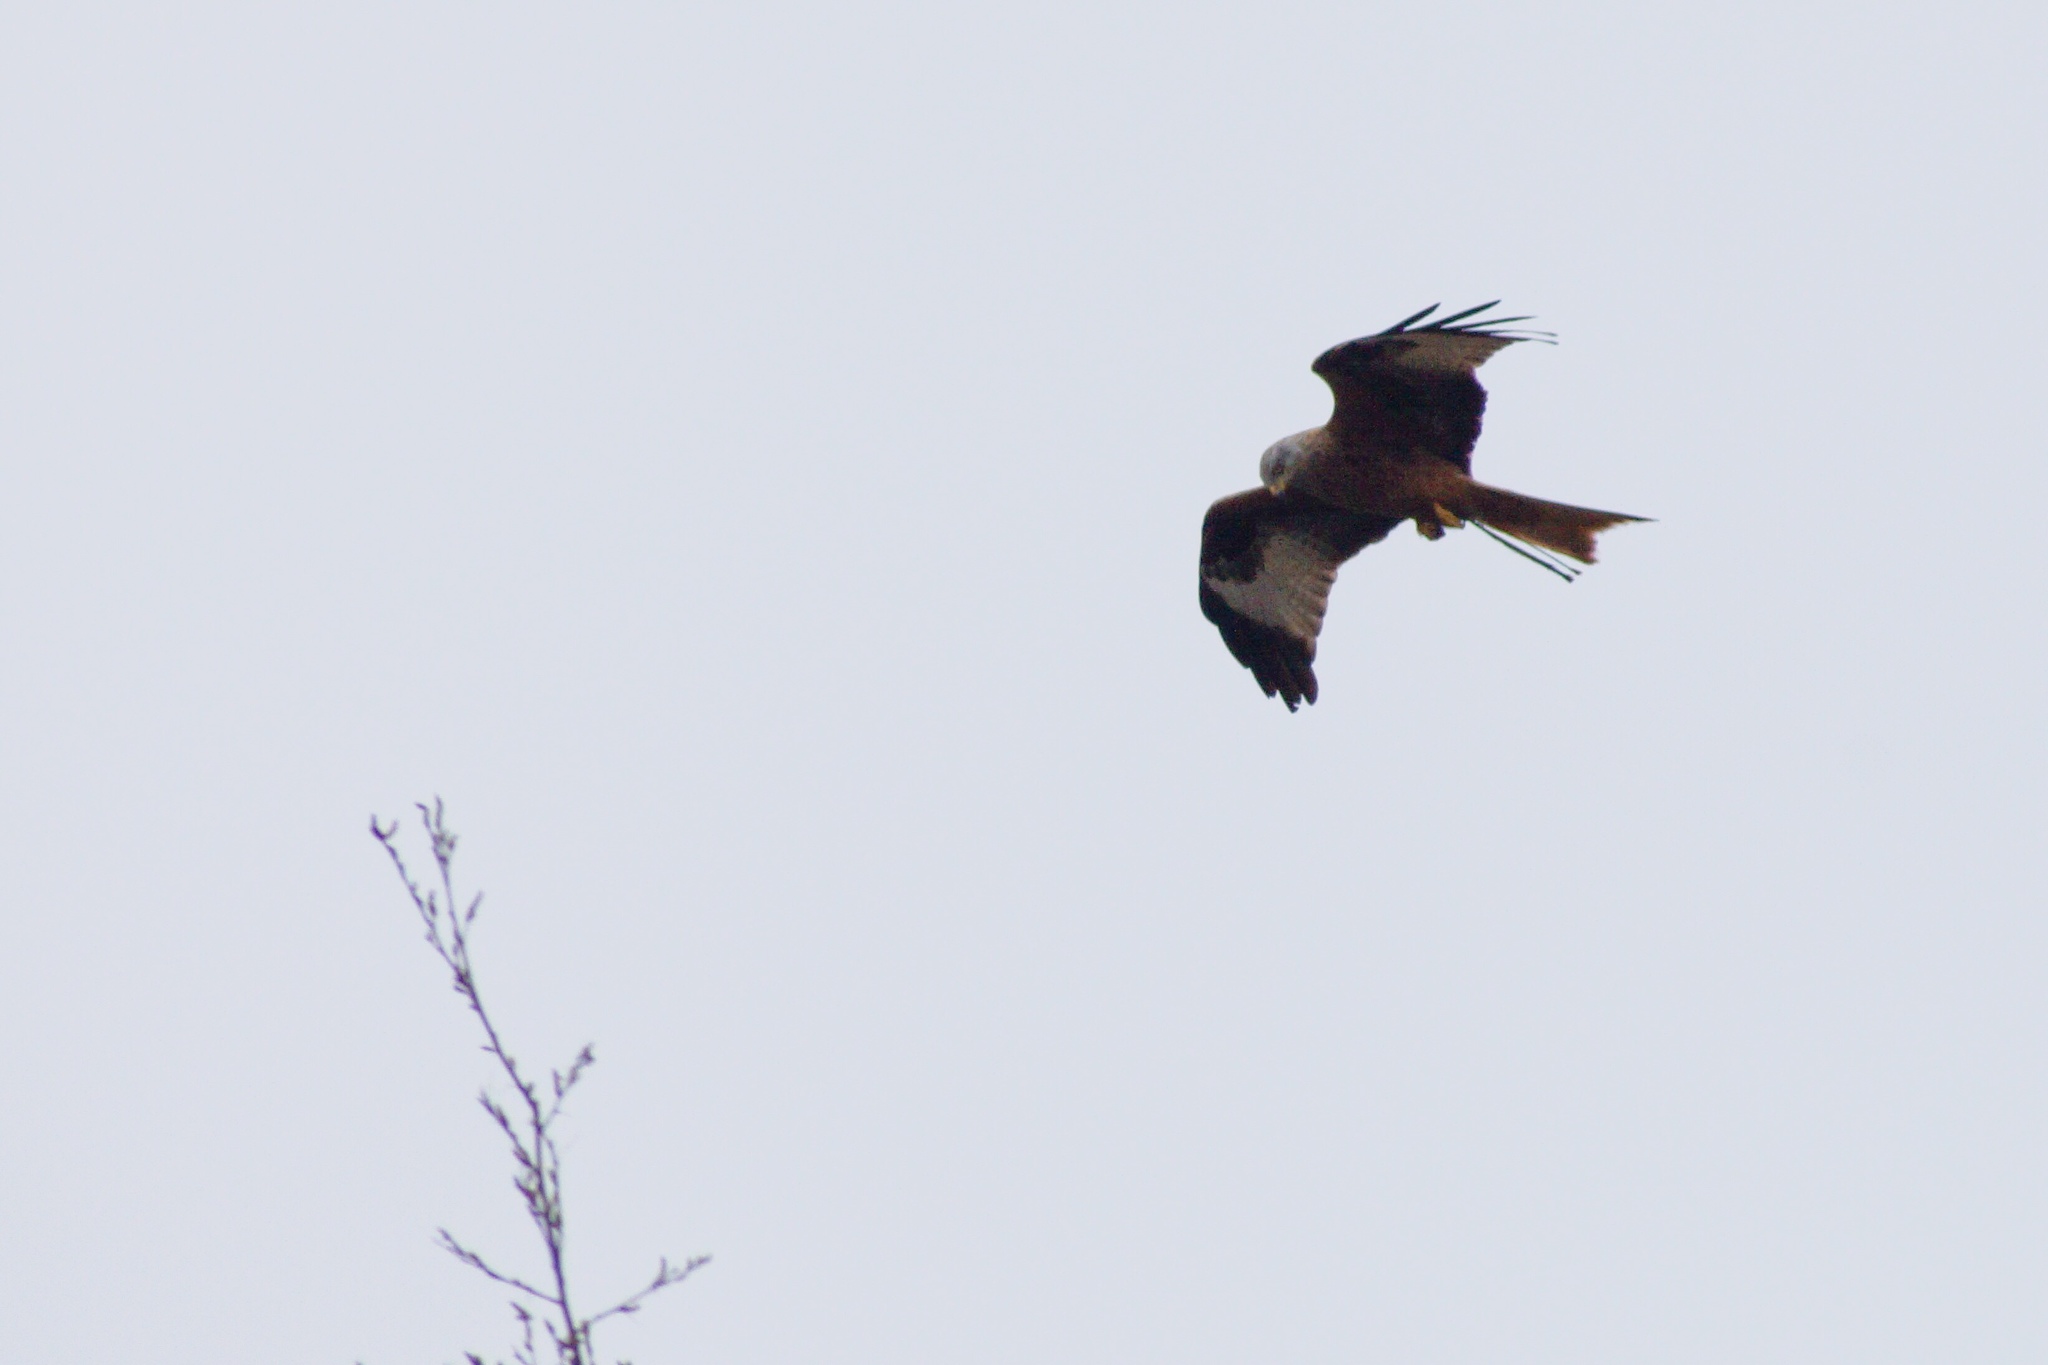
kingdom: Animalia
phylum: Chordata
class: Aves
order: Accipitriformes
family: Accipitridae
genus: Milvus
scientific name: Milvus milvus
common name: Red kite
